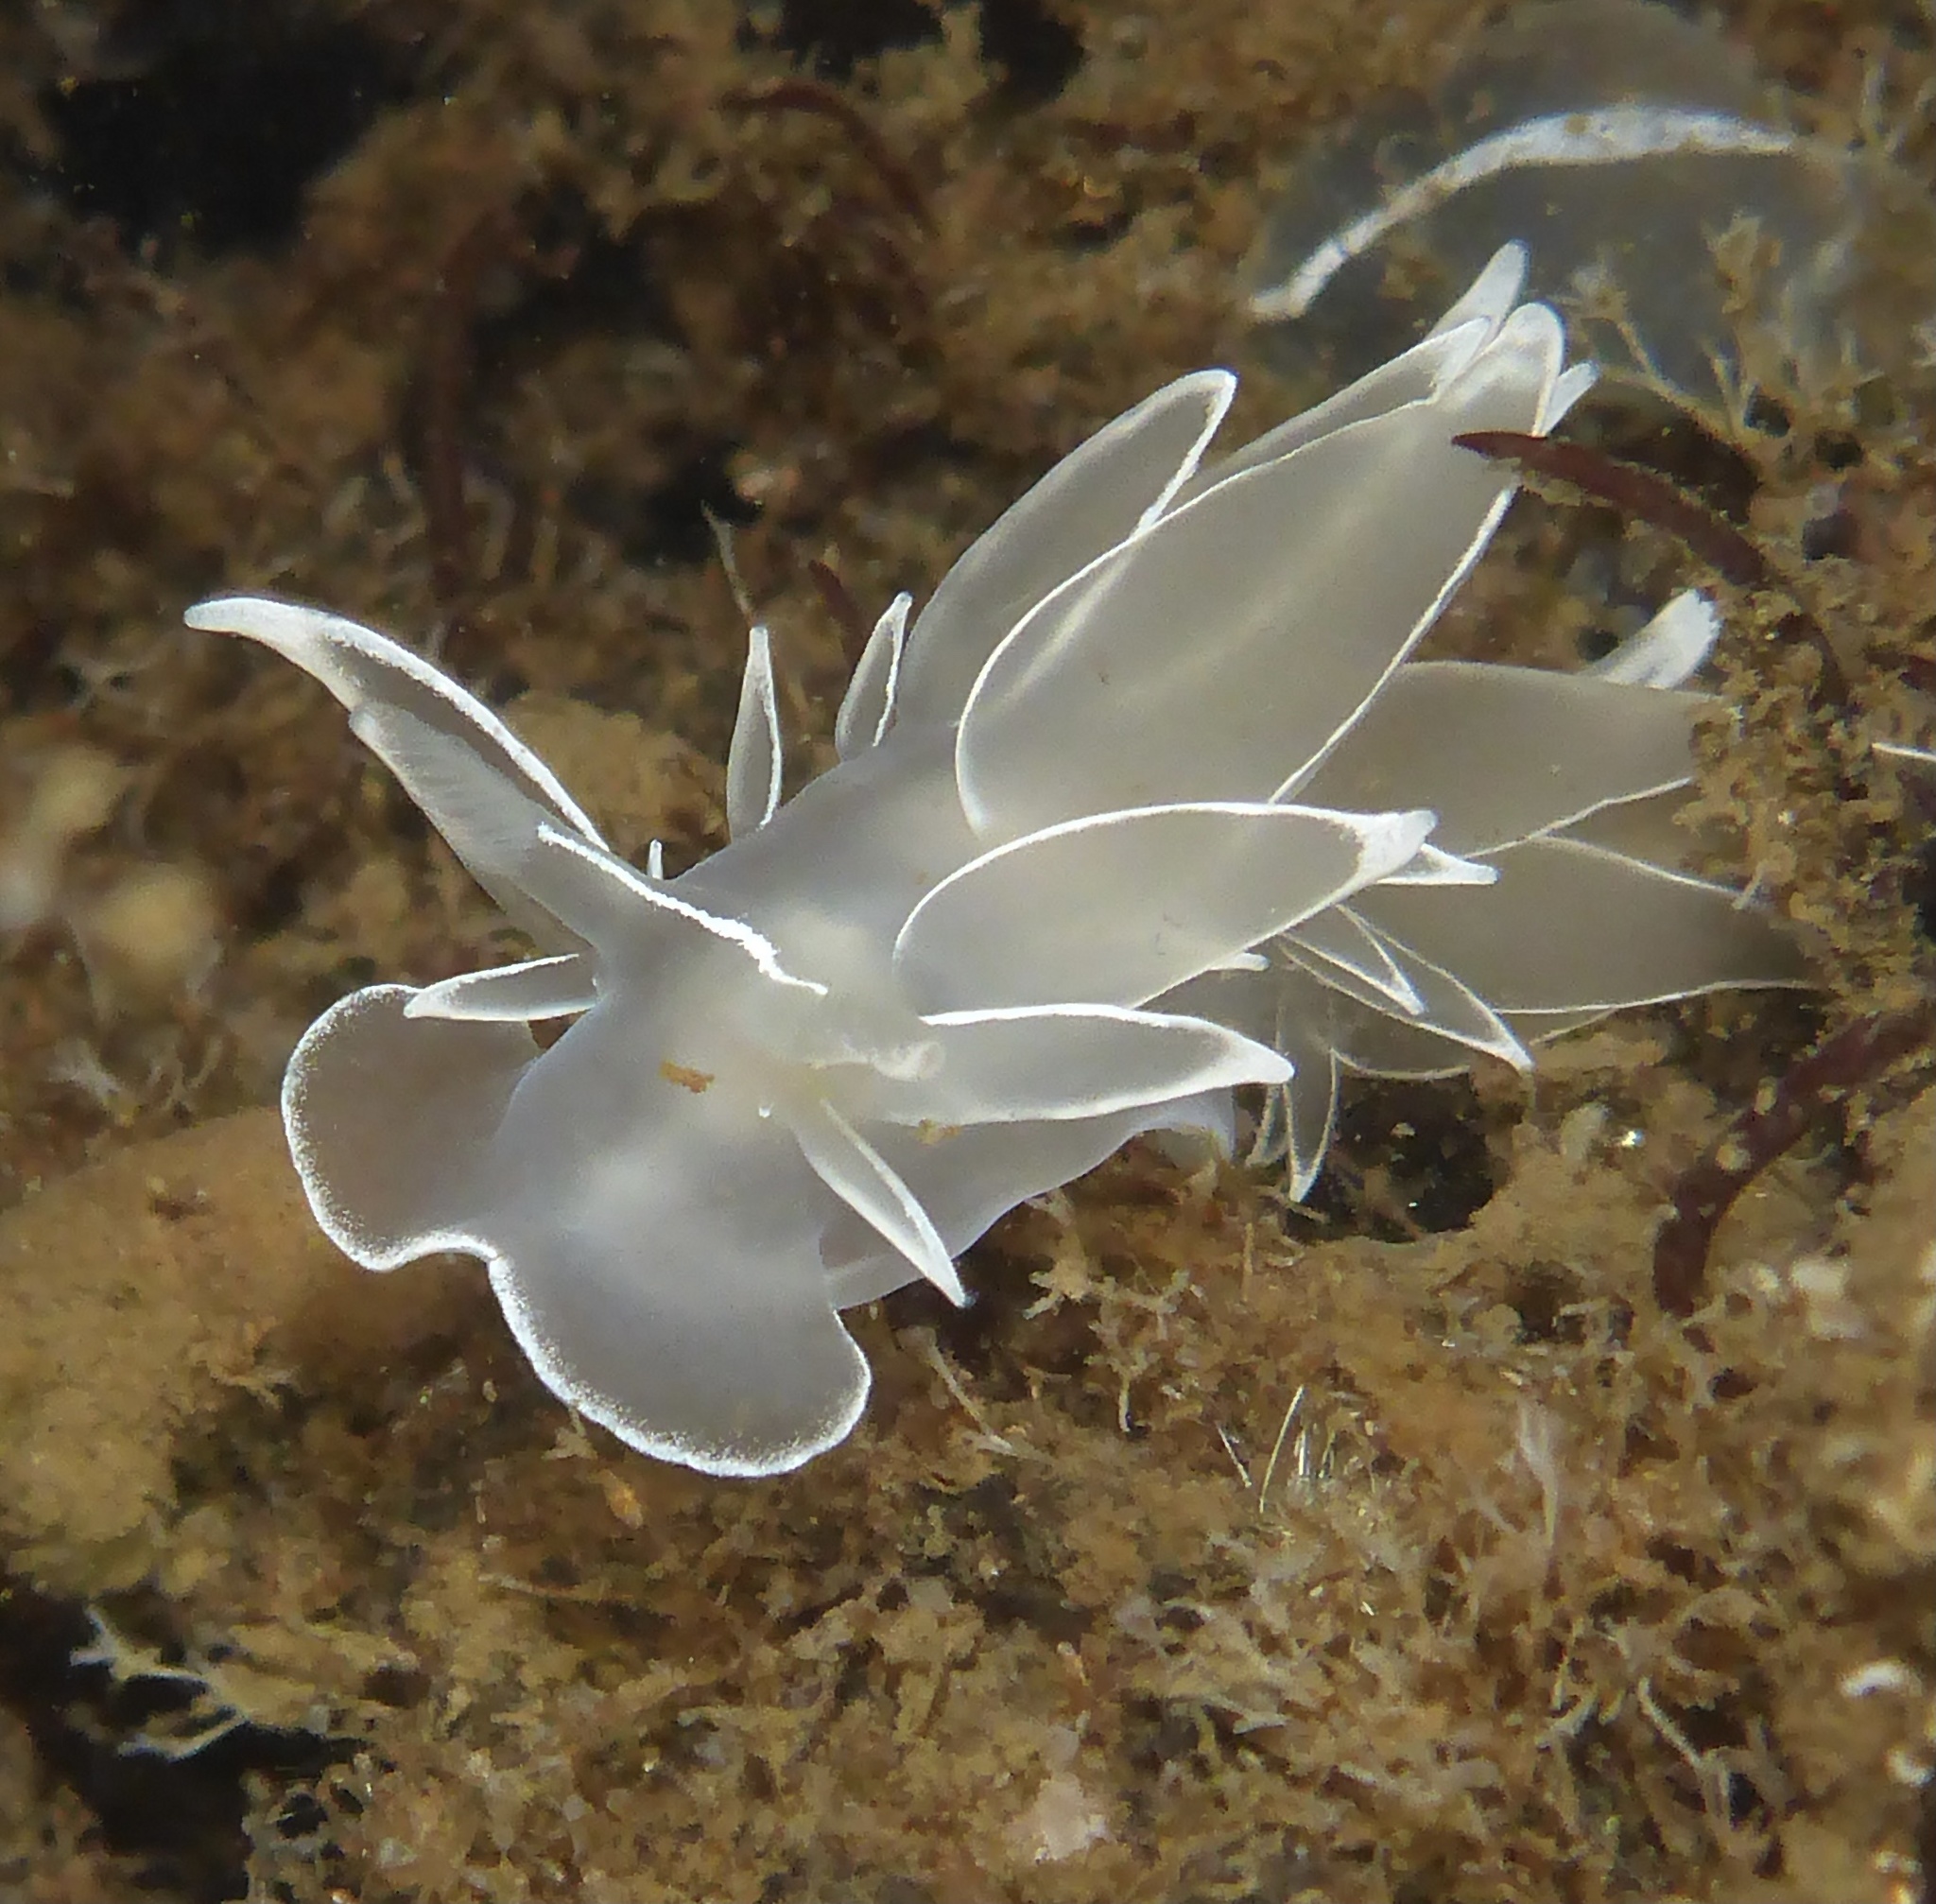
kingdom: Animalia
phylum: Mollusca
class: Gastropoda
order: Nudibranchia
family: Dironidae
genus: Dirona
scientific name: Dirona albolineata
